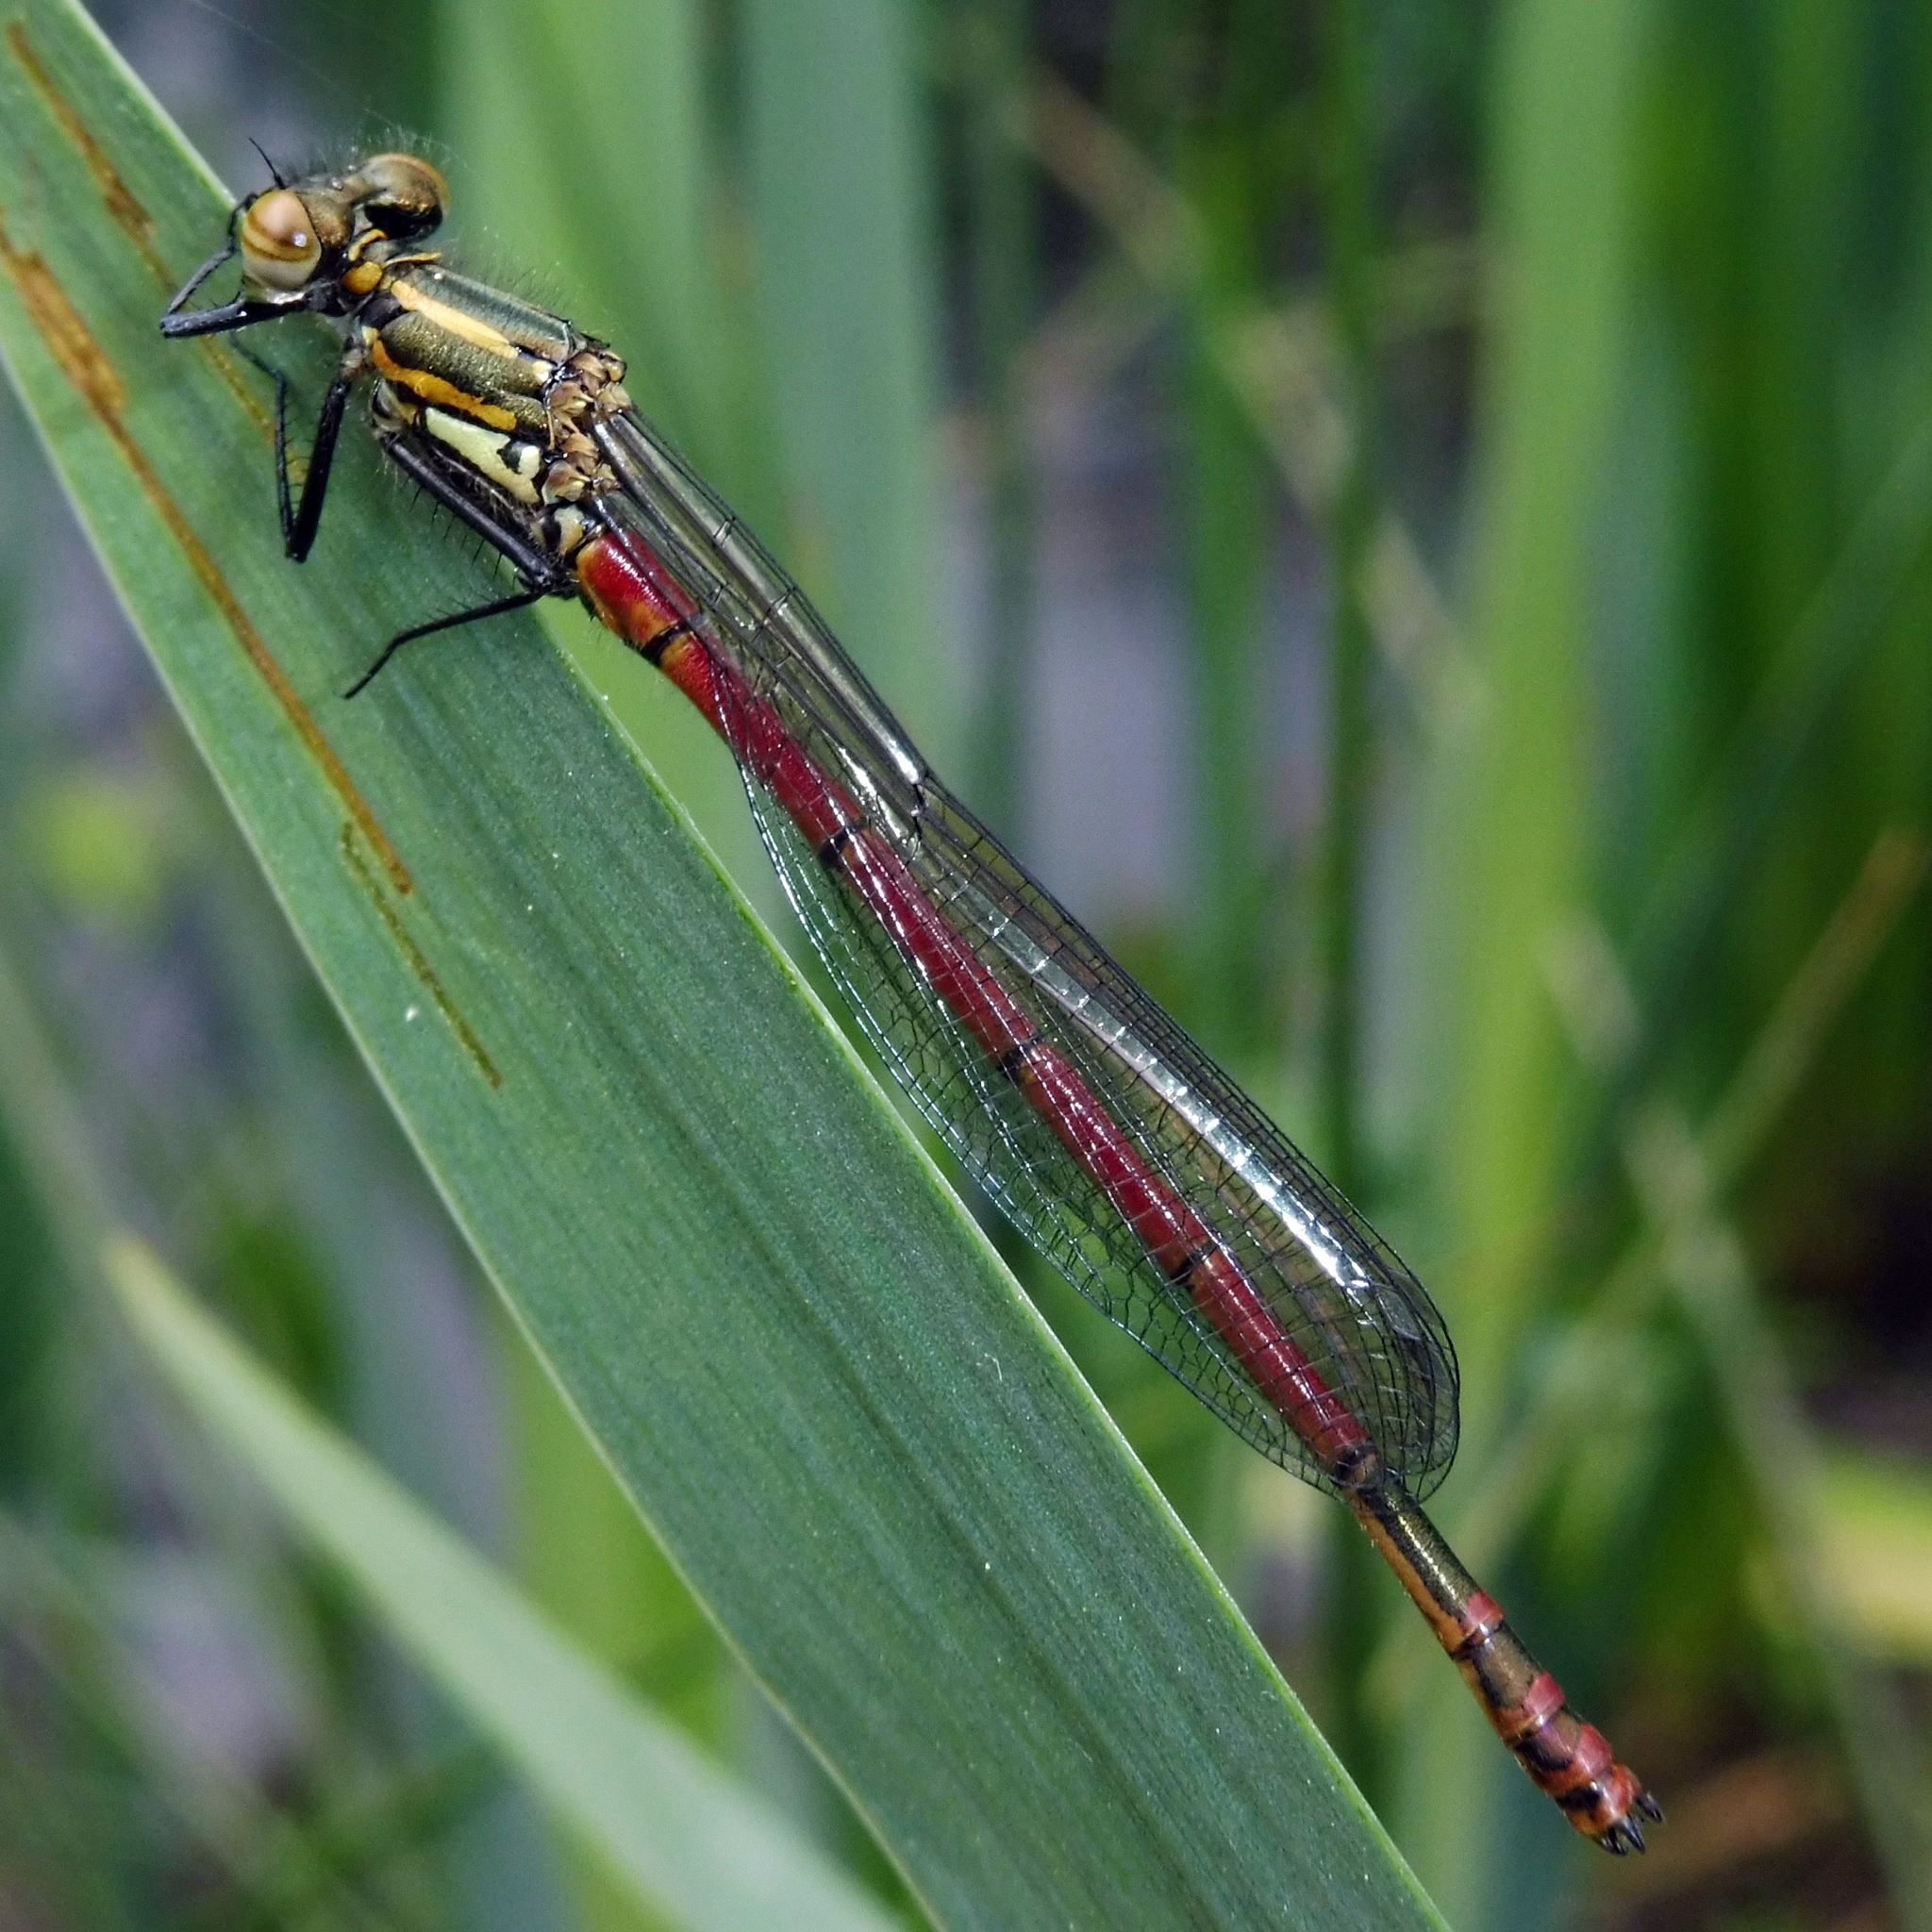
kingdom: Animalia
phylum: Arthropoda
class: Insecta
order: Odonata
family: Coenagrionidae
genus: Pyrrhosoma
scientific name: Pyrrhosoma nymphula
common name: Large red damsel
